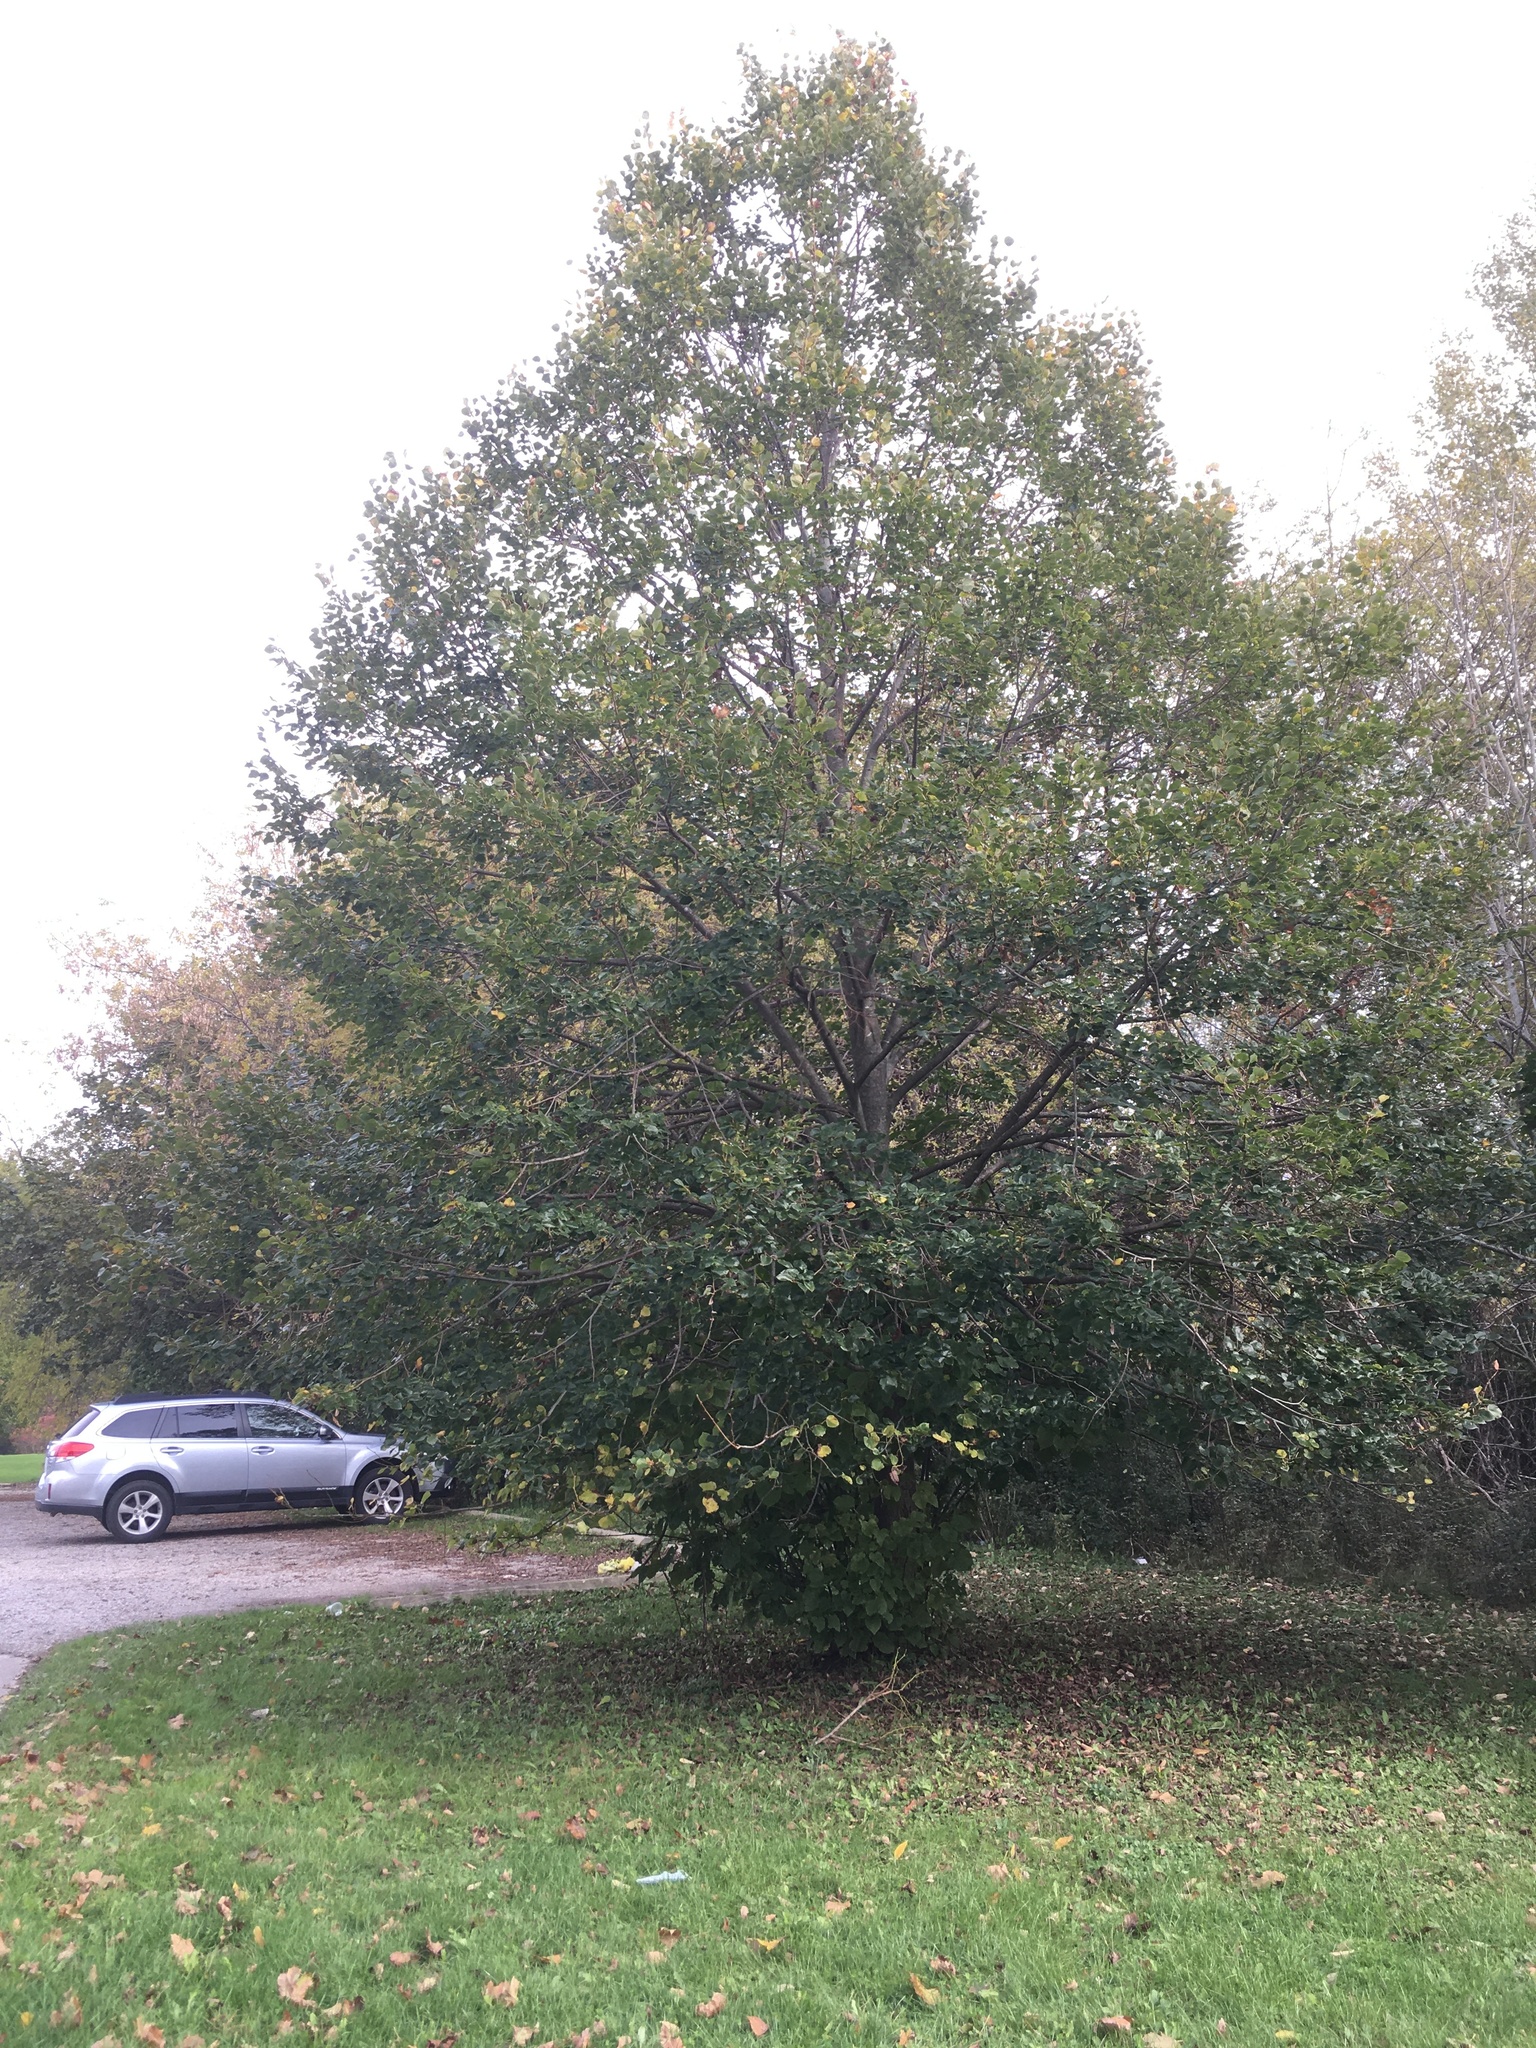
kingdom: Plantae
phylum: Tracheophyta
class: Magnoliopsida
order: Malvales
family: Malvaceae
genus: Tilia
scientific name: Tilia cordata
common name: Small-leaved lime
